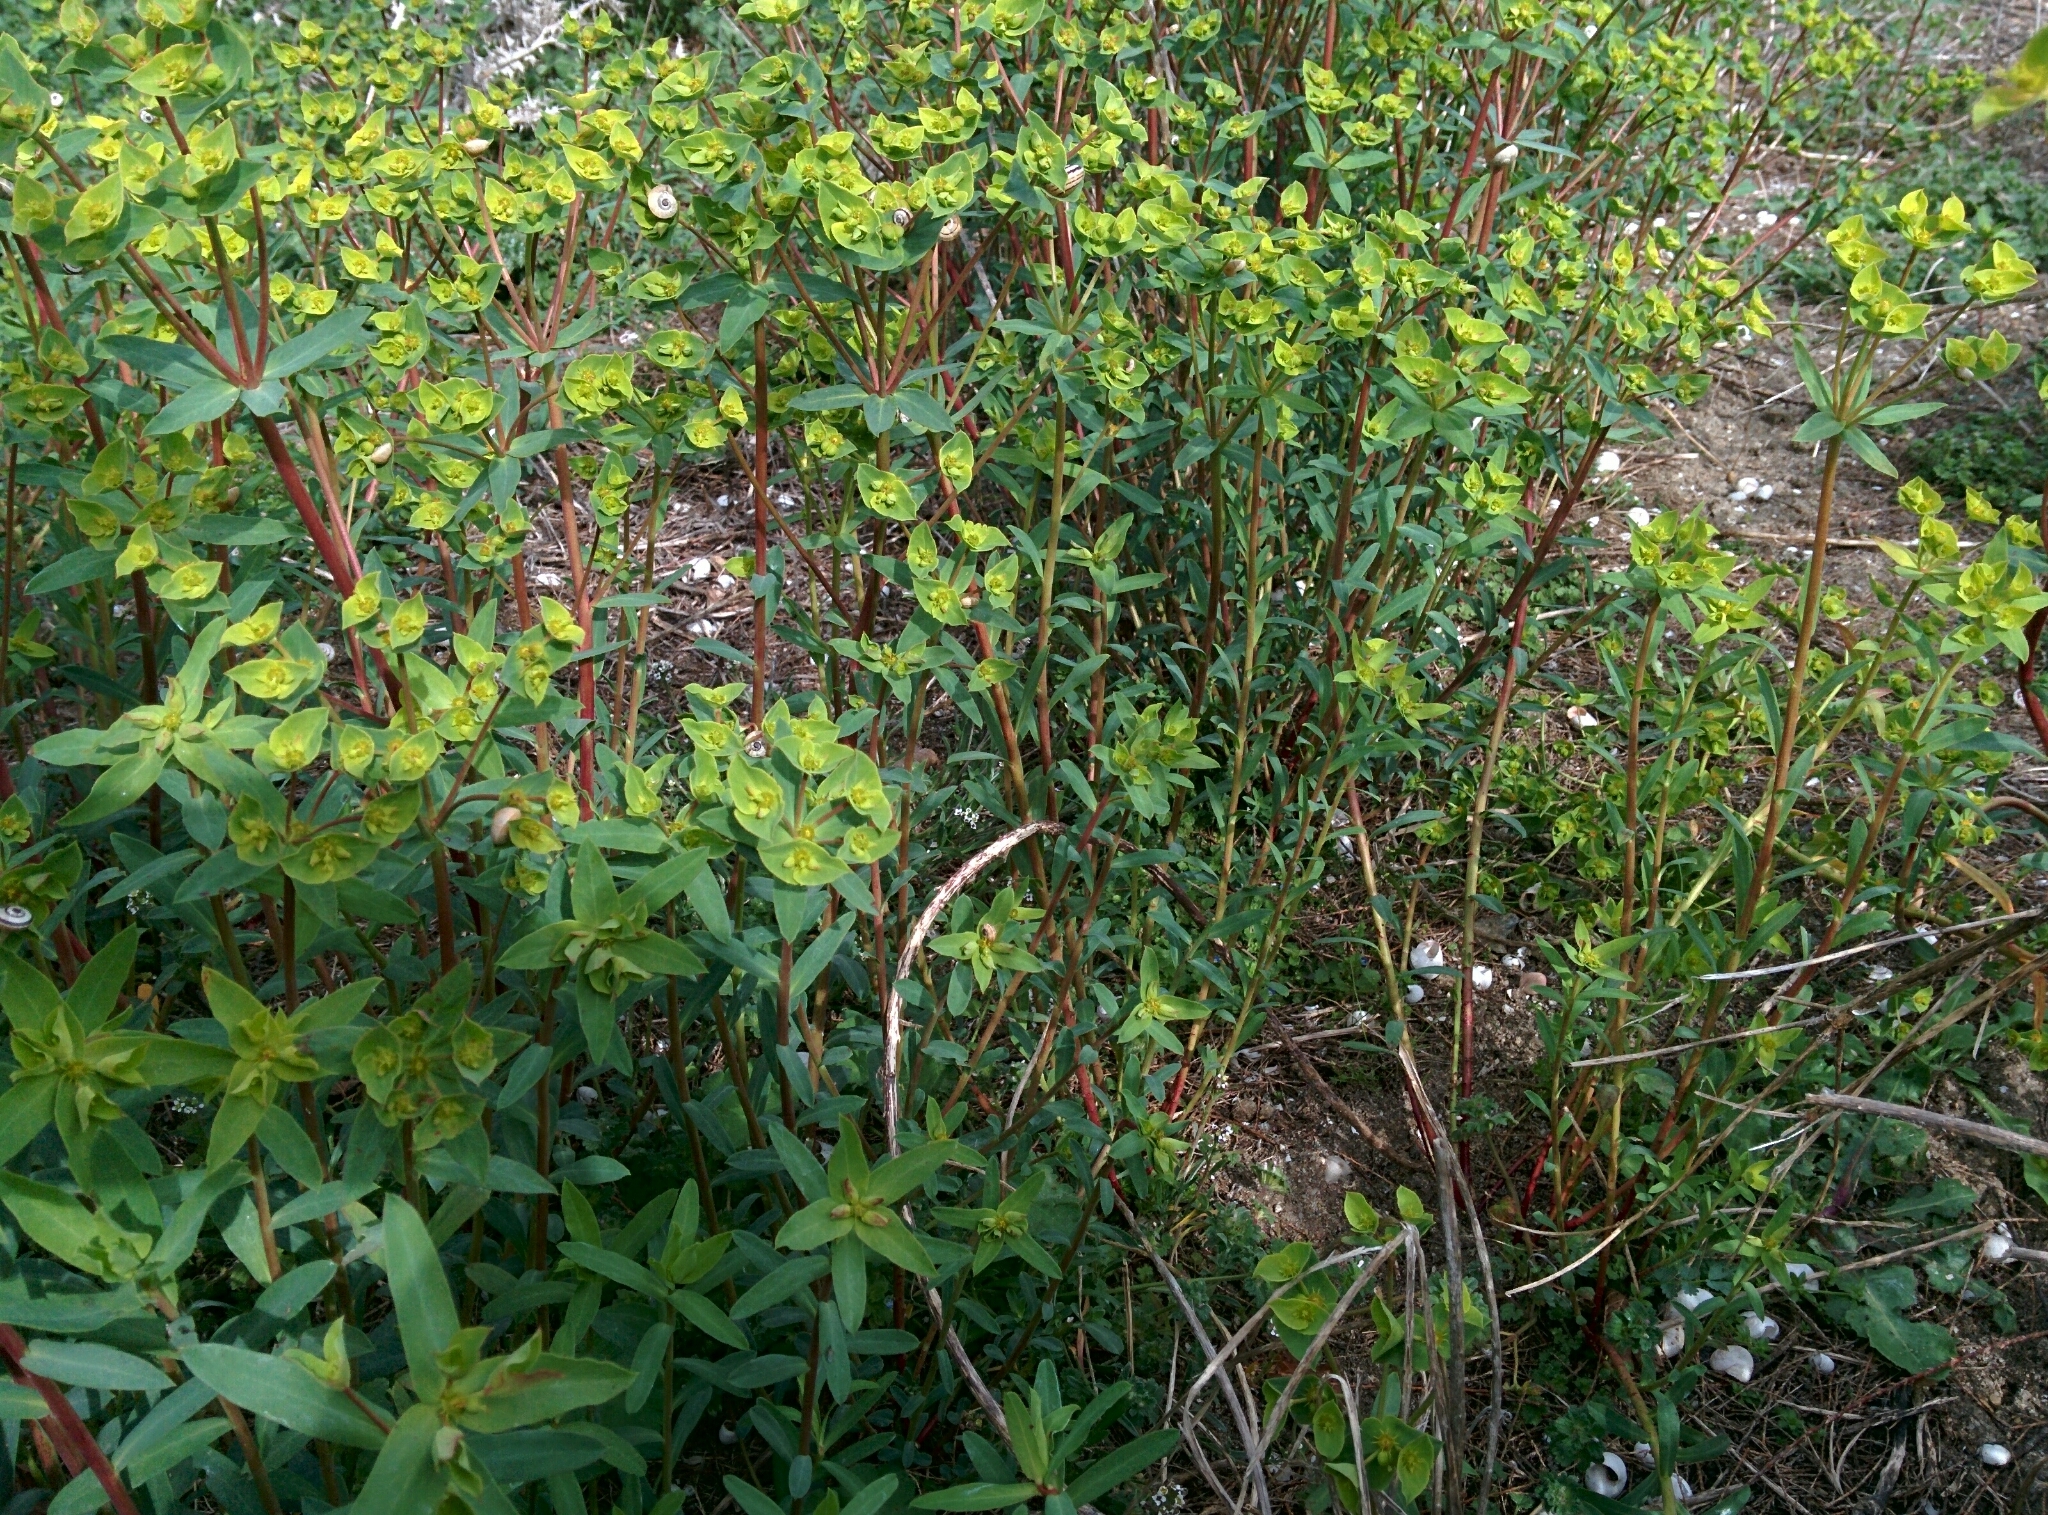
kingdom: Plantae
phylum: Tracheophyta
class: Magnoliopsida
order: Malpighiales
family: Euphorbiaceae
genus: Euphorbia
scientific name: Euphorbia terracina
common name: Geraldton carnation weed
